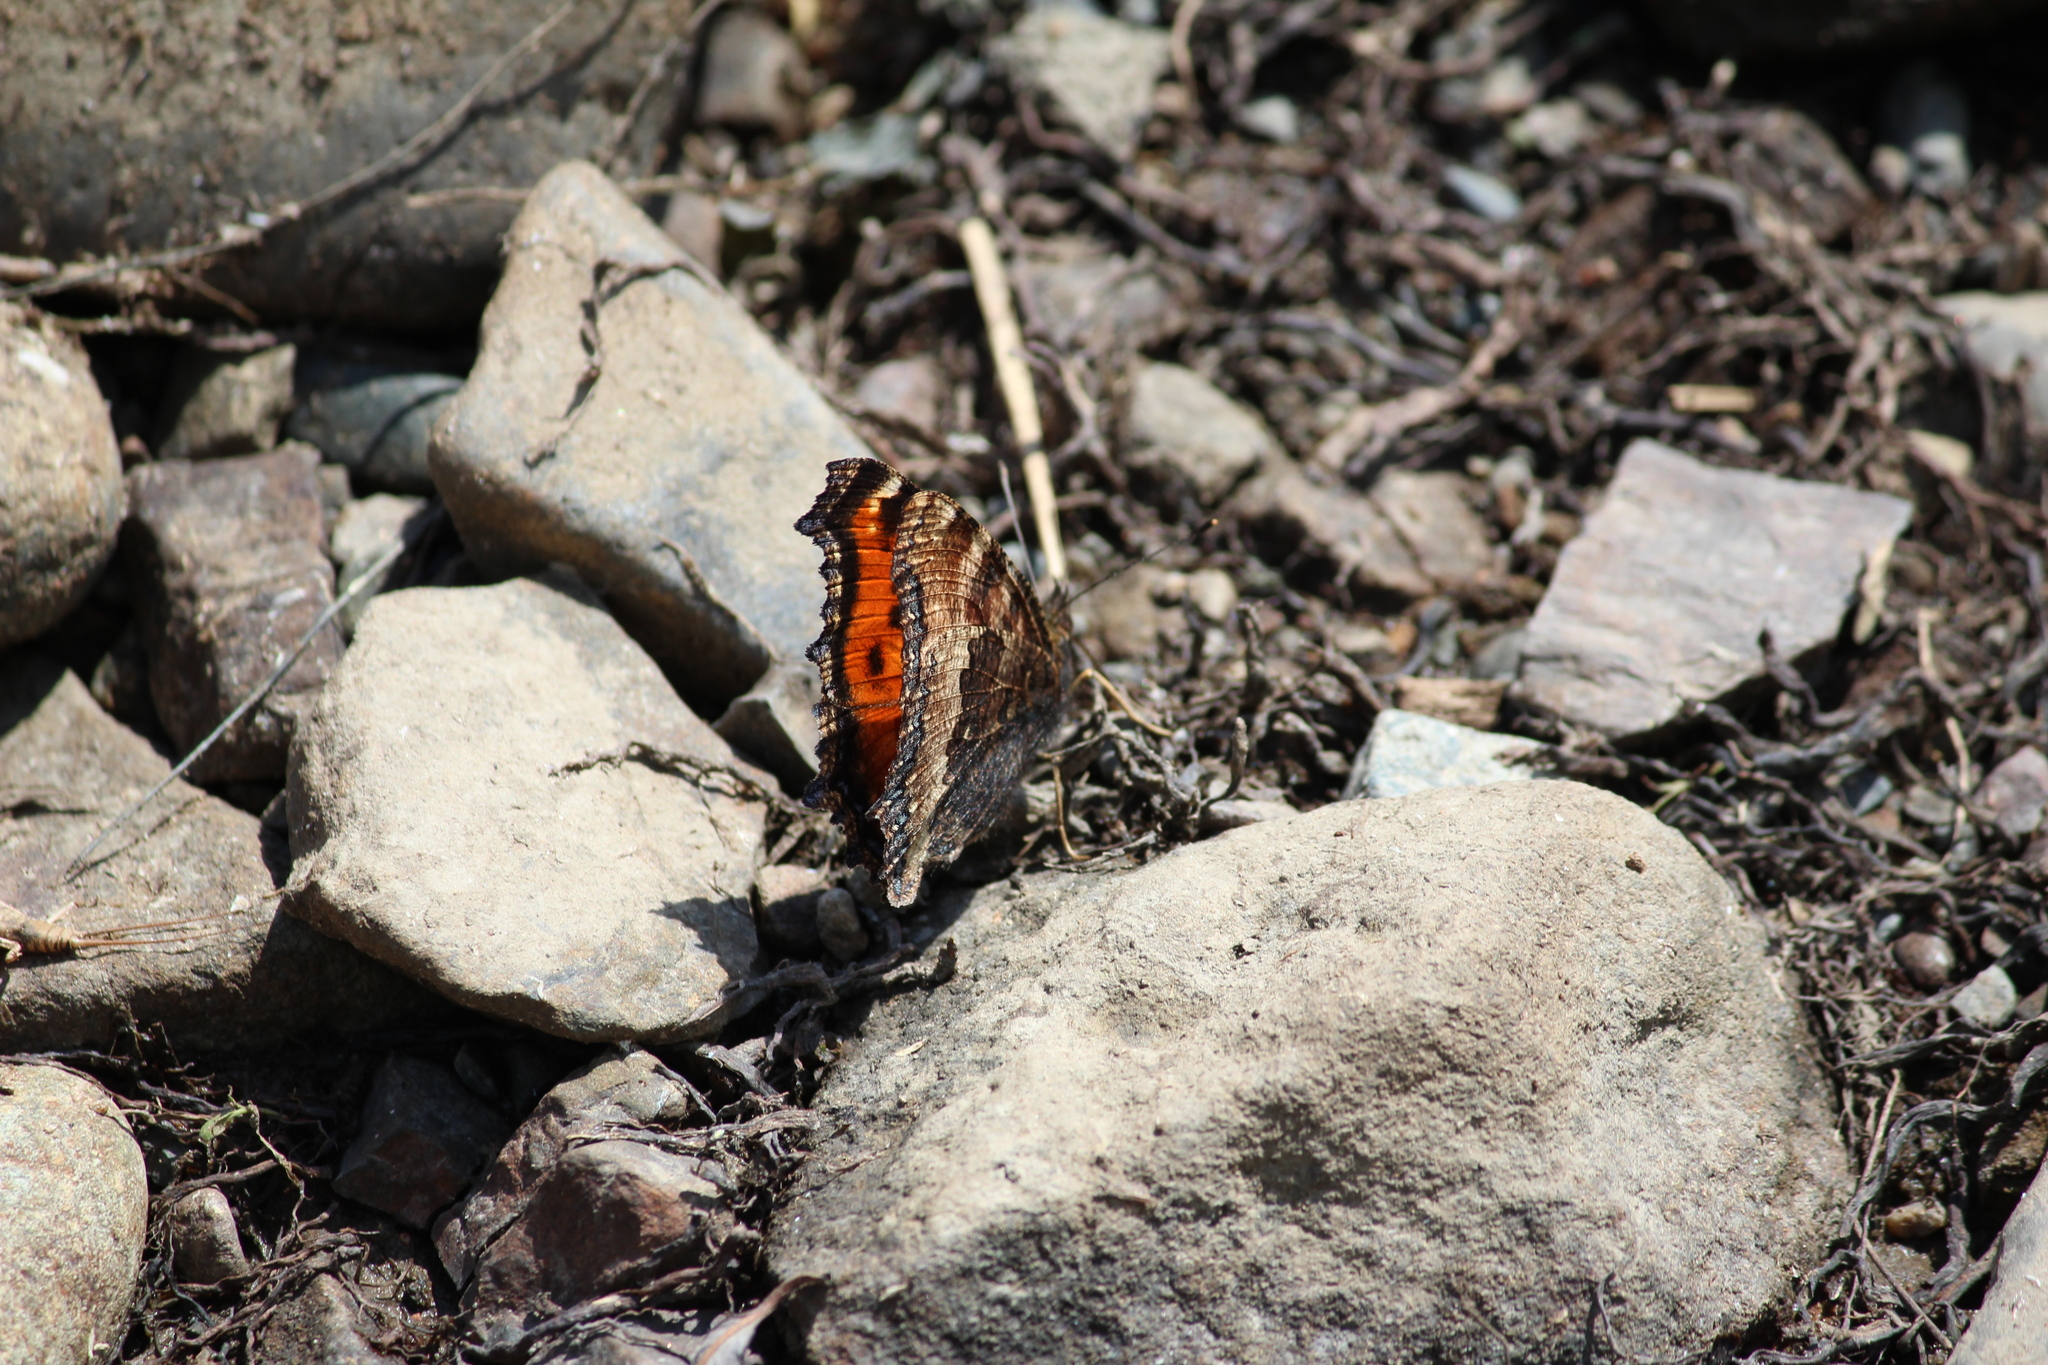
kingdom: Animalia
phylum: Arthropoda
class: Insecta
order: Lepidoptera
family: Nymphalidae
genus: Nymphalis
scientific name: Nymphalis xanthomelas
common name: Scarce tortoiseshell
